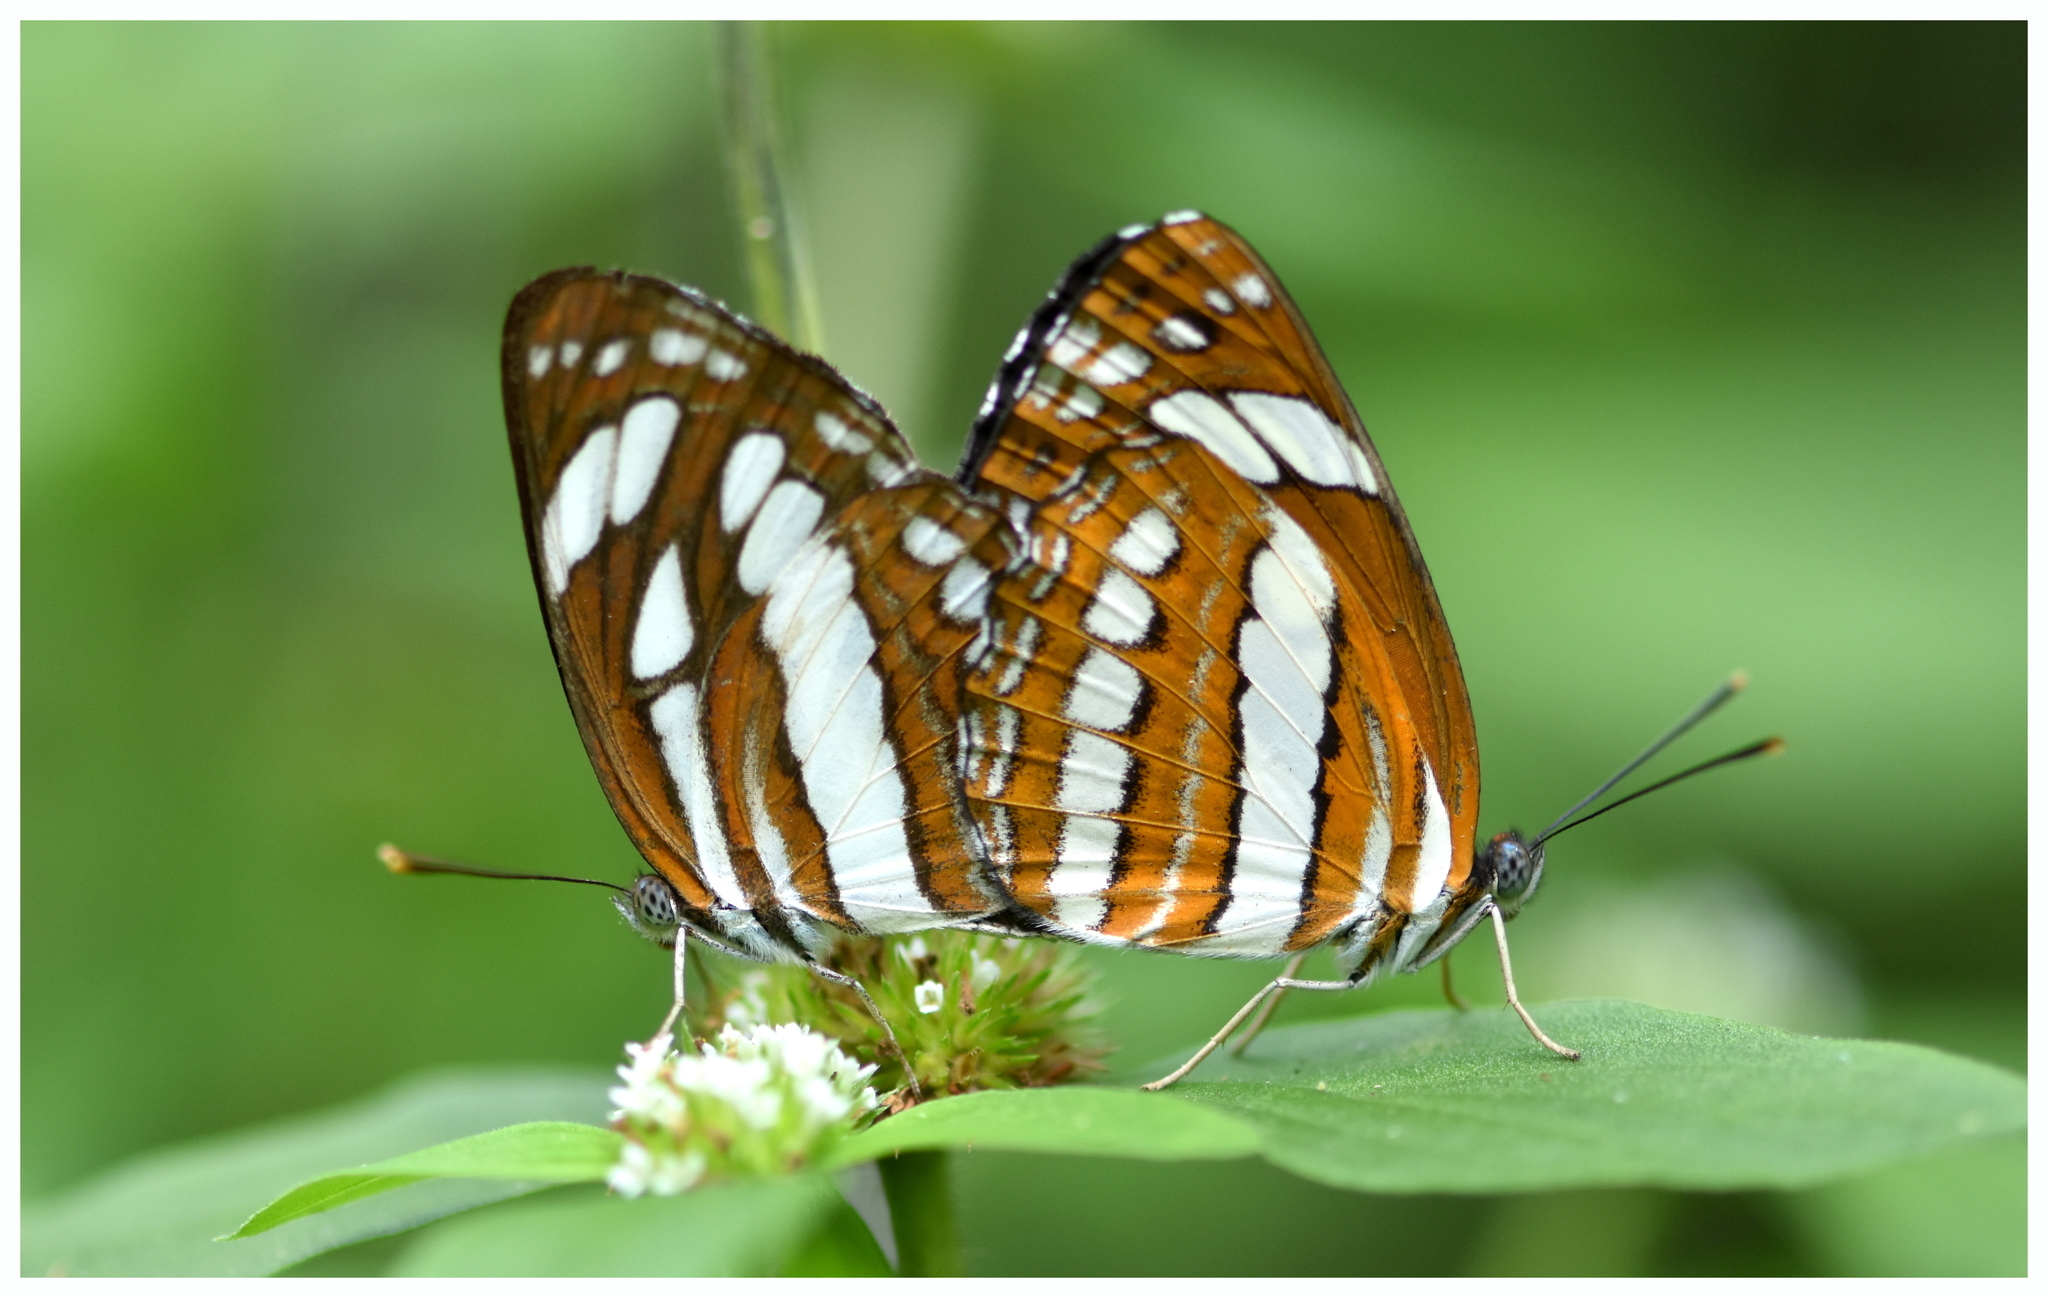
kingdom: Animalia
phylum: Arthropoda
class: Insecta
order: Lepidoptera
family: Nymphalidae
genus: Neptis
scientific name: Neptis hylas
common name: Common sailer
